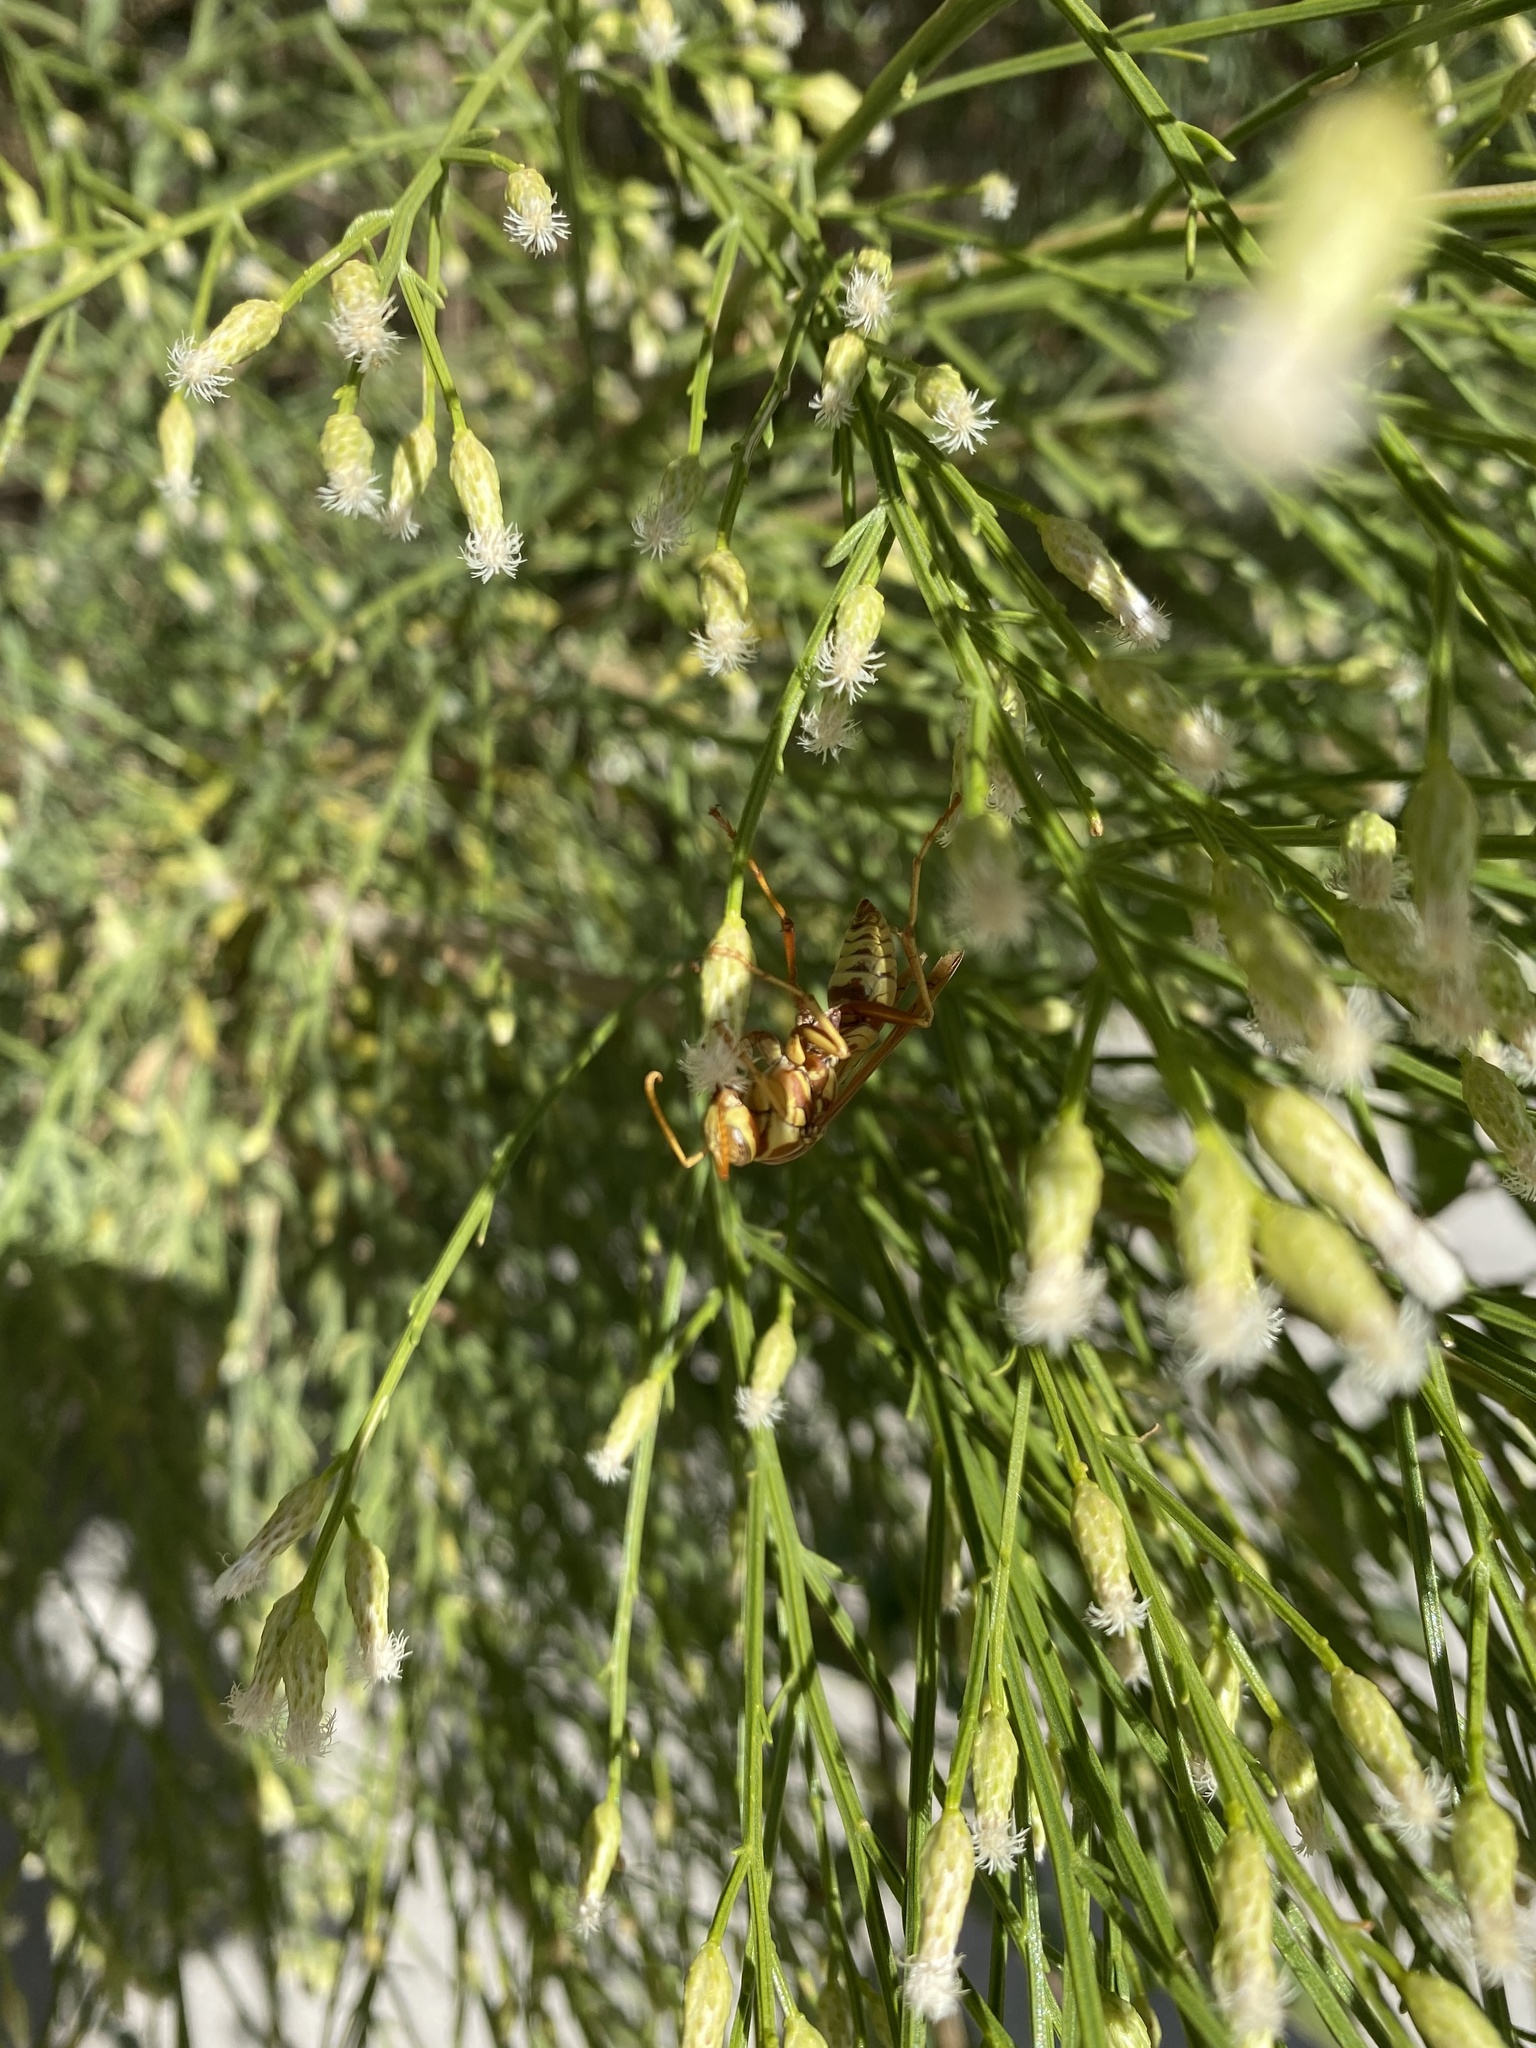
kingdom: Animalia
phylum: Arthropoda
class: Insecta
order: Hymenoptera
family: Eumenidae
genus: Polistes
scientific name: Polistes aurifer
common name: Paper wasp
